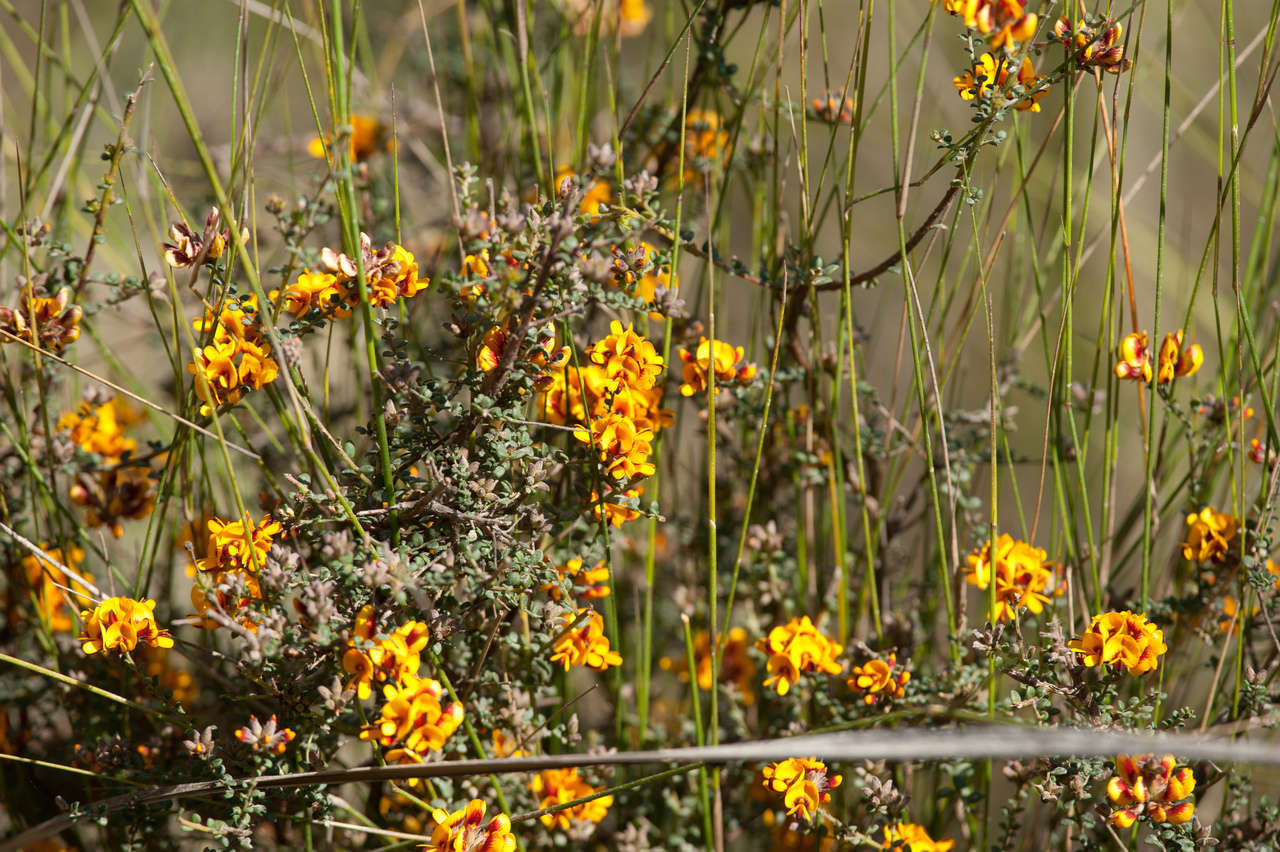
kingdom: Plantae
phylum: Tracheophyta
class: Magnoliopsida
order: Fabales
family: Fabaceae
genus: Pultenaea
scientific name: Pultenaea gunnii
